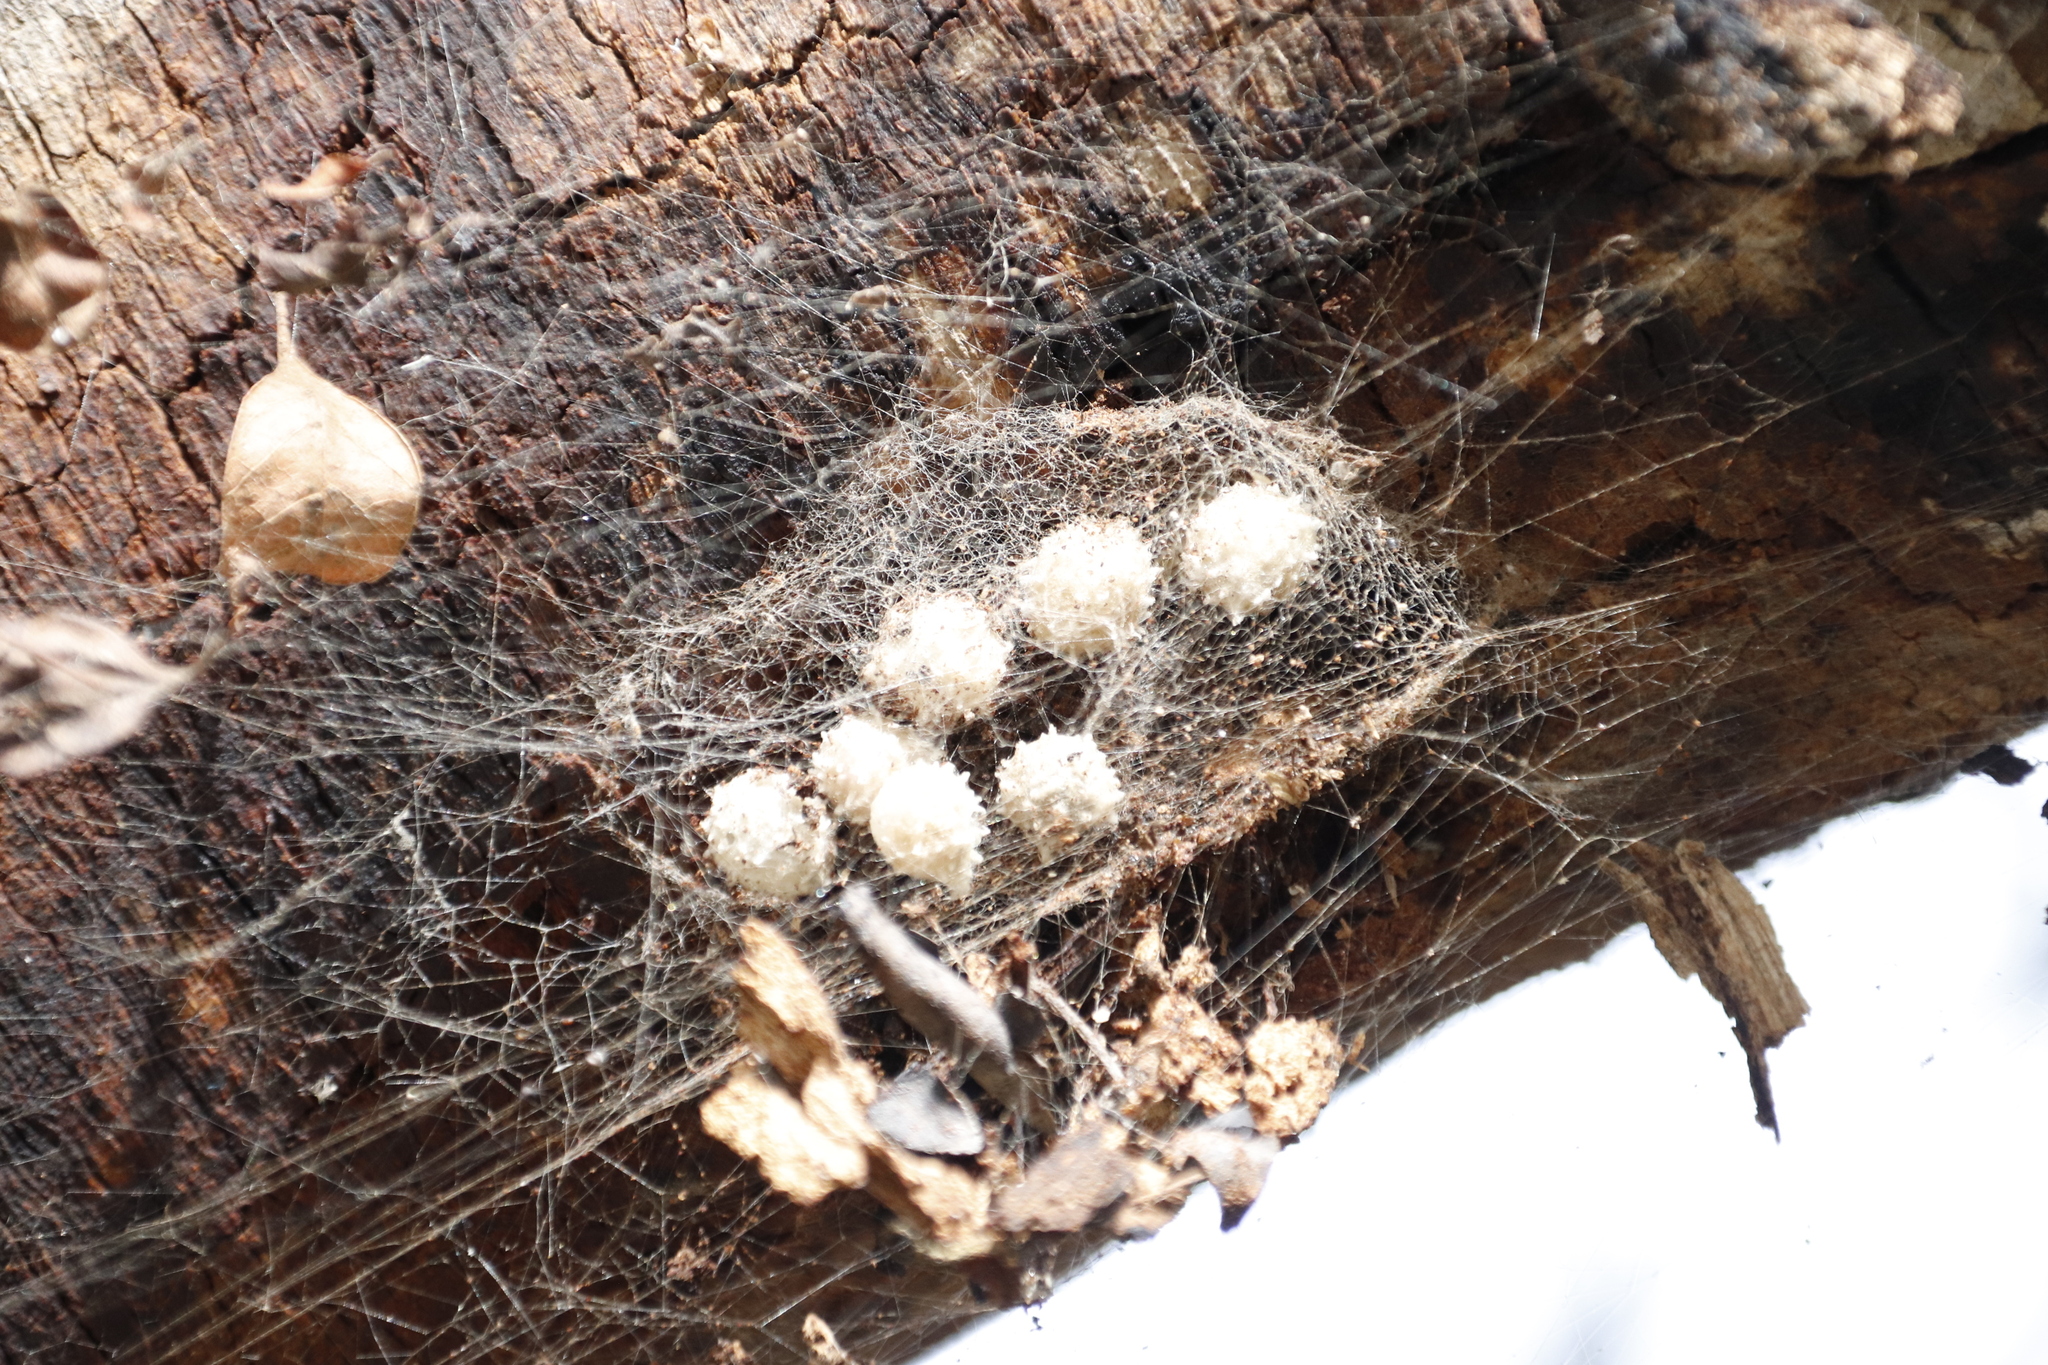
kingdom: Animalia
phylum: Arthropoda
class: Arachnida
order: Araneae
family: Theridiidae
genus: Latrodectus
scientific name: Latrodectus geometricus
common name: Brown widow spider
